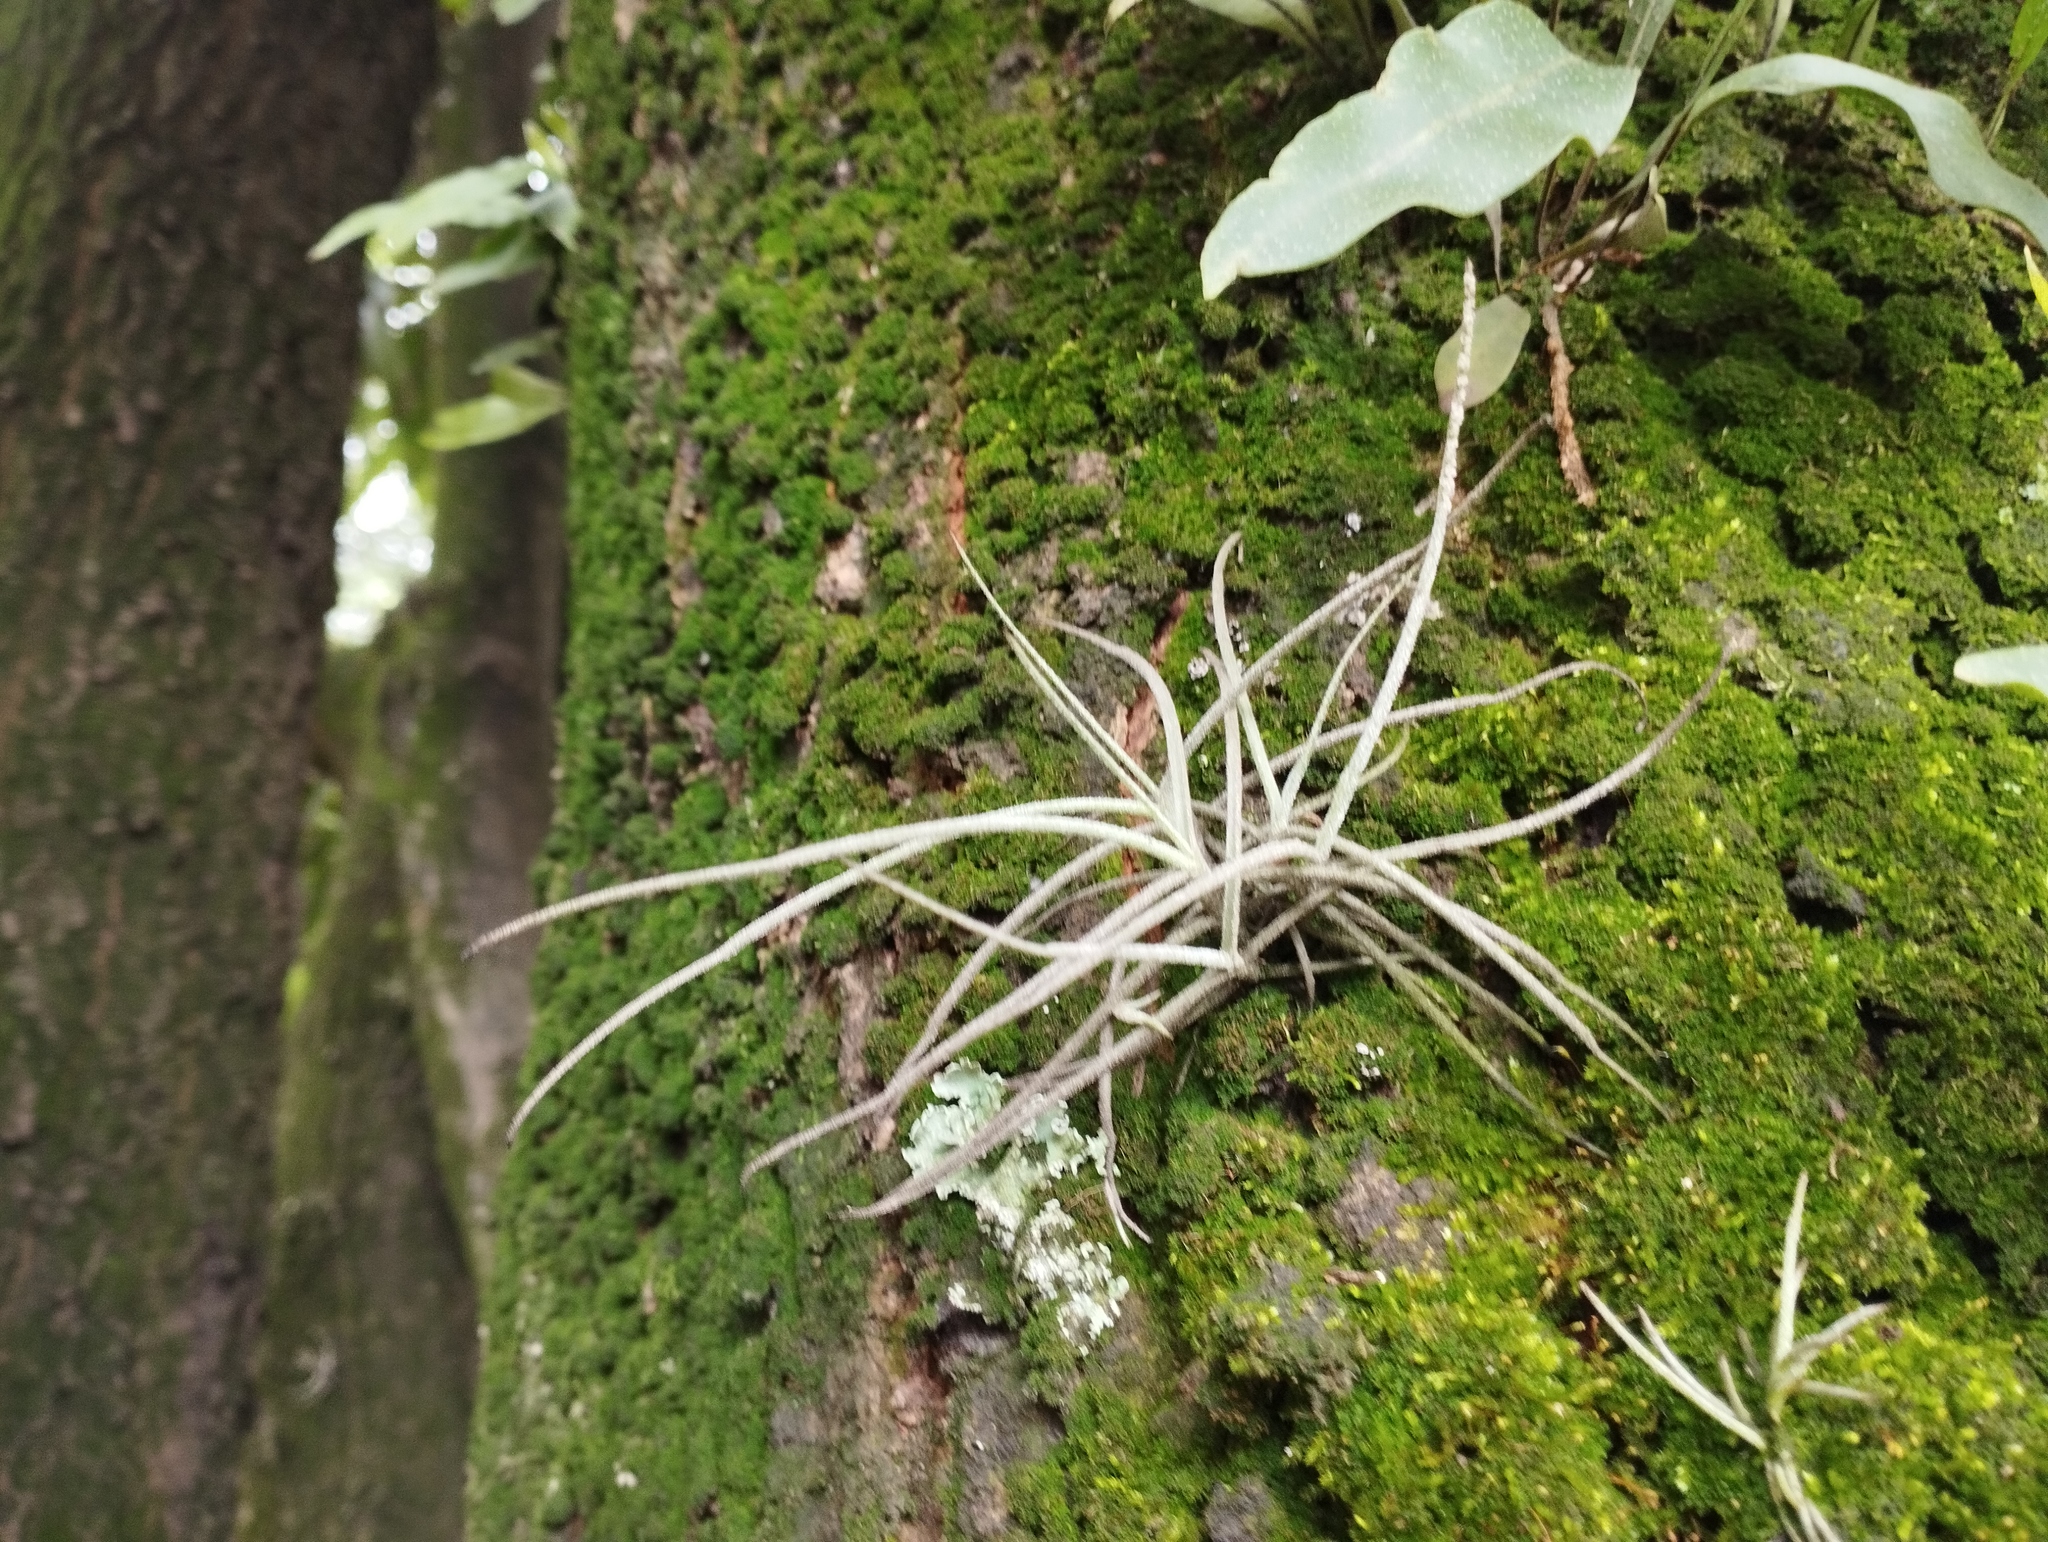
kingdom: Plantae
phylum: Tracheophyta
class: Liliopsida
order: Poales
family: Bromeliaceae
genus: Tillandsia
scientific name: Tillandsia recurvata
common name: Small ballmoss
